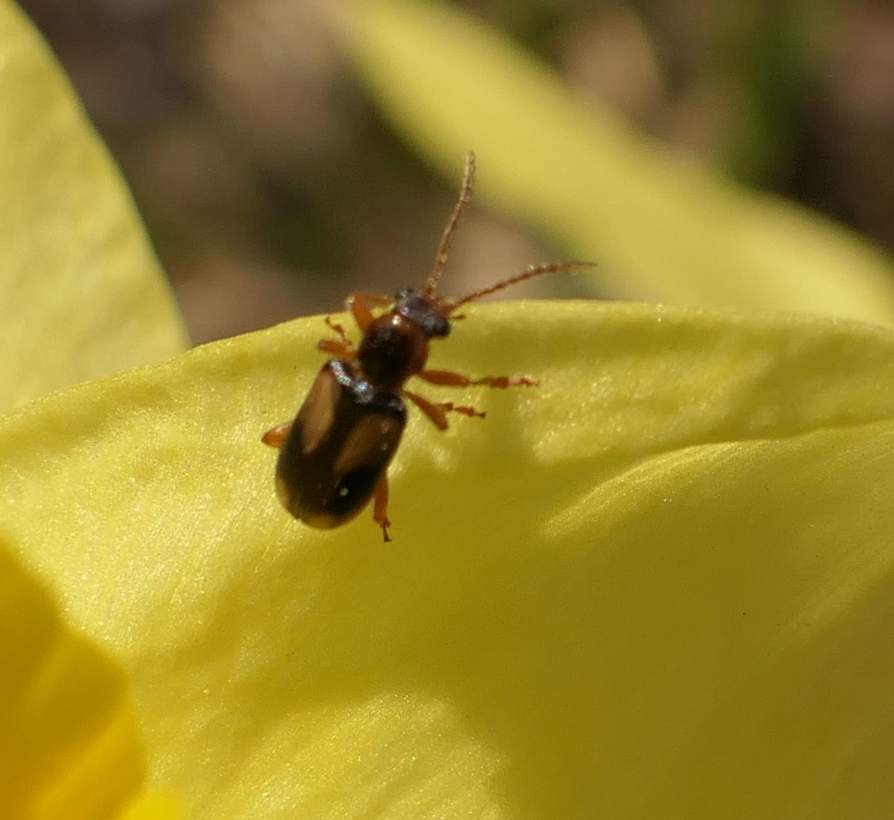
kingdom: Animalia
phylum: Arthropoda
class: Insecta
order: Coleoptera
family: Orsodacnidae
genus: Orsodacne
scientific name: Orsodacne atra
